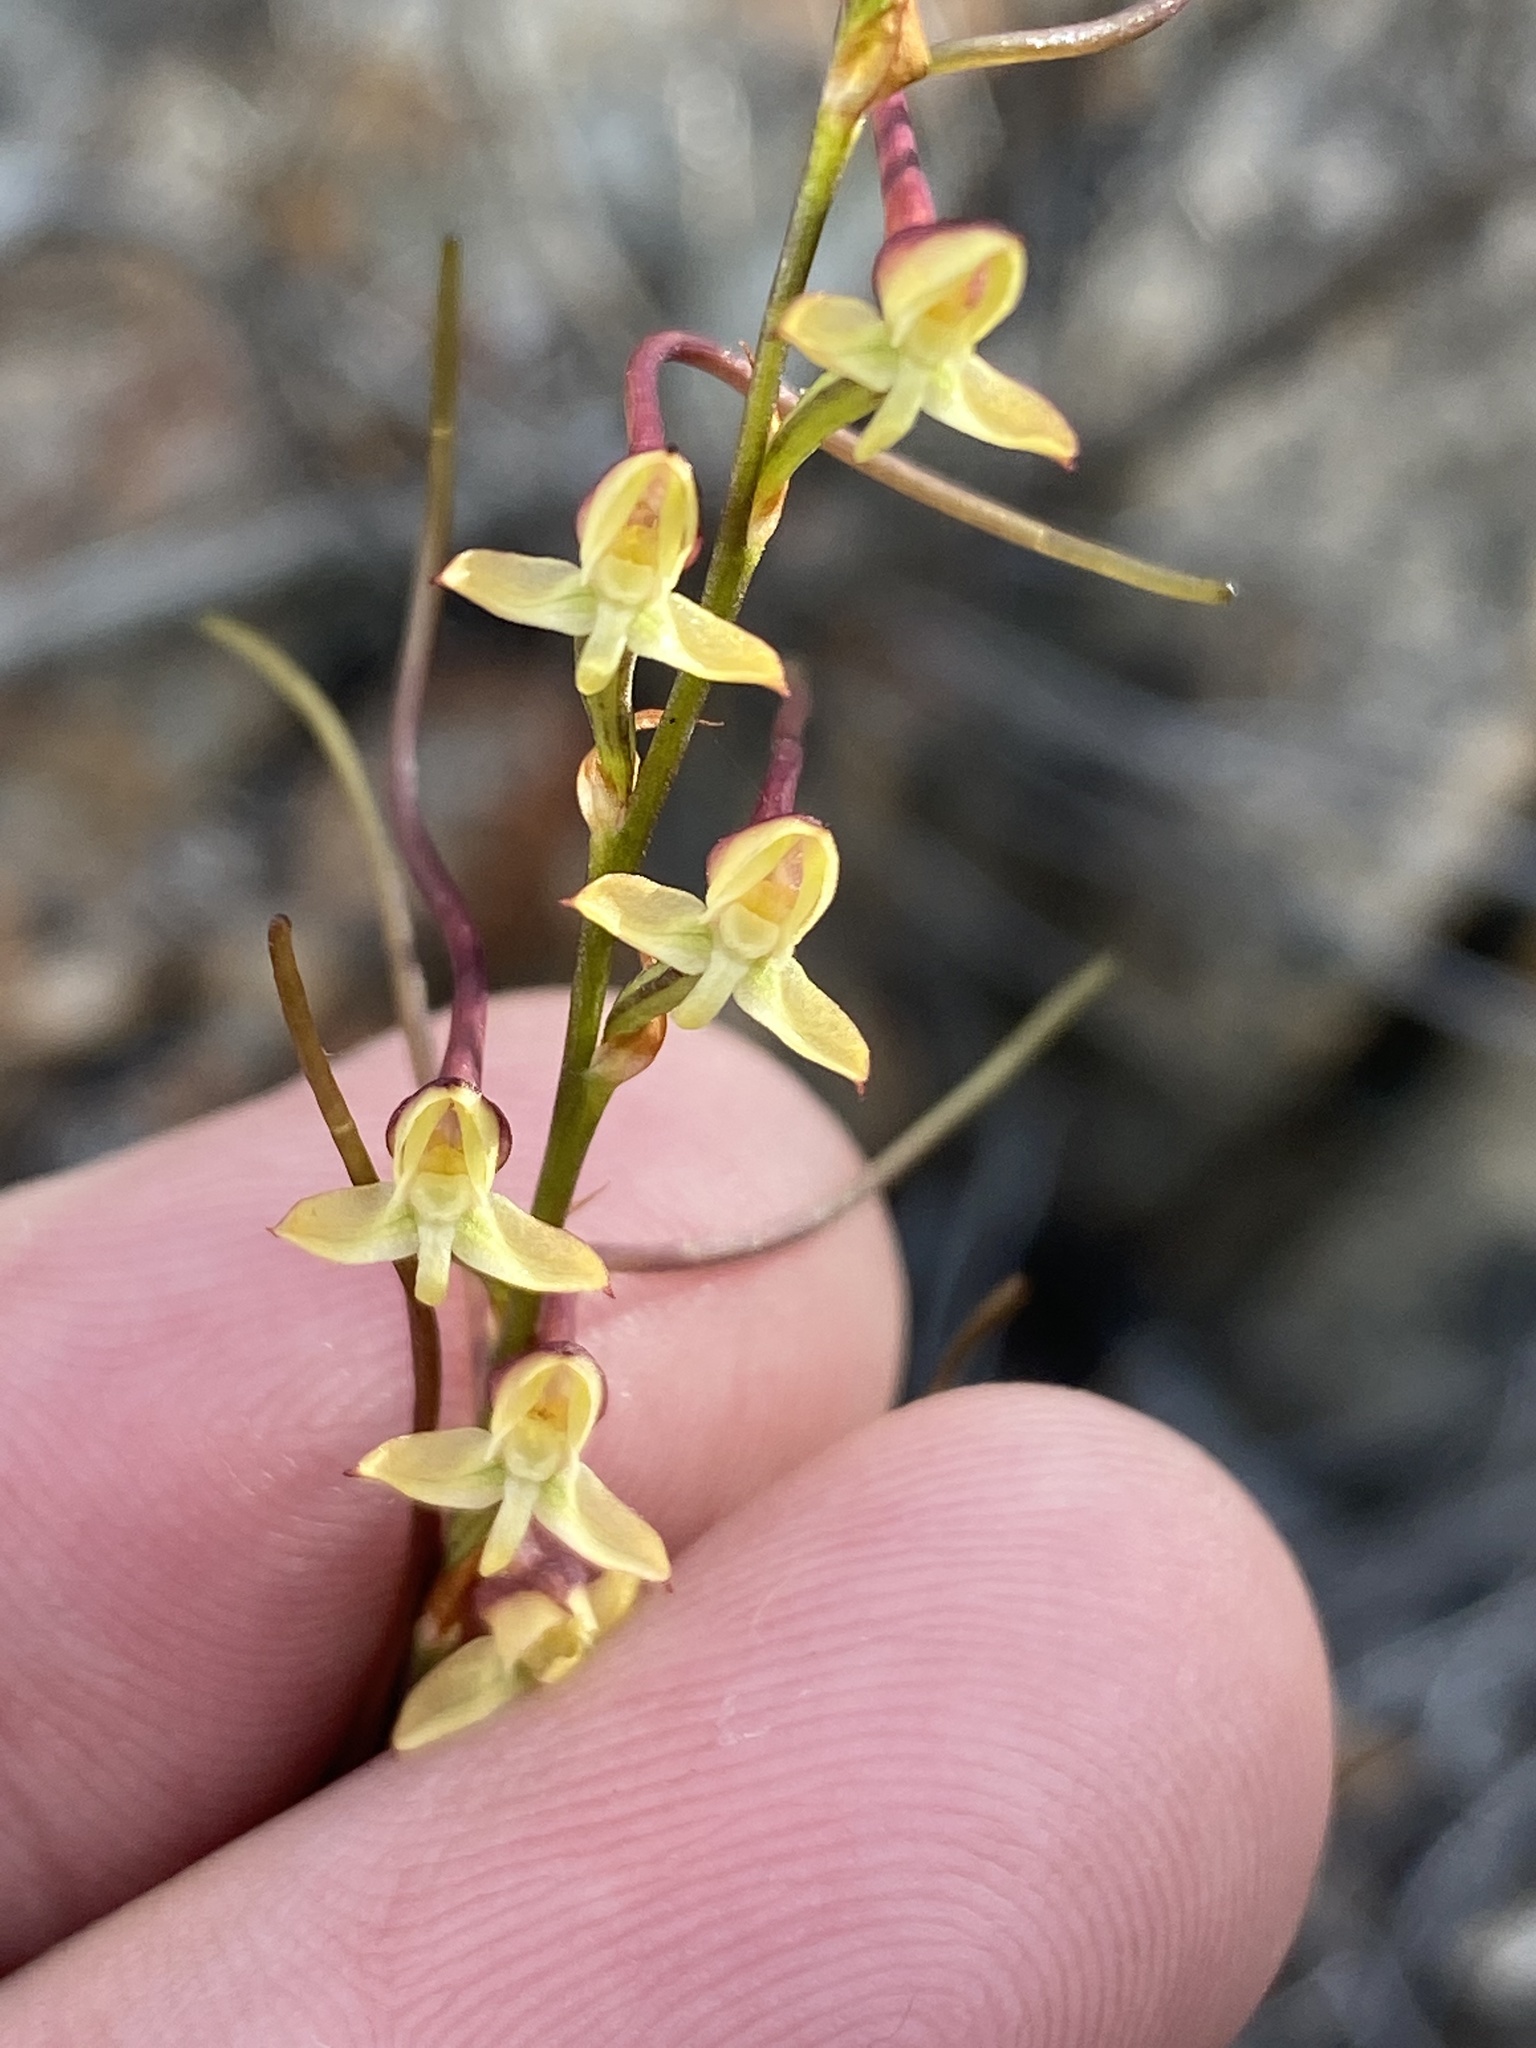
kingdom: Plantae
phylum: Tracheophyta
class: Liliopsida
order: Asparagales
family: Orchidaceae
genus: Disa
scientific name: Disa salteri
